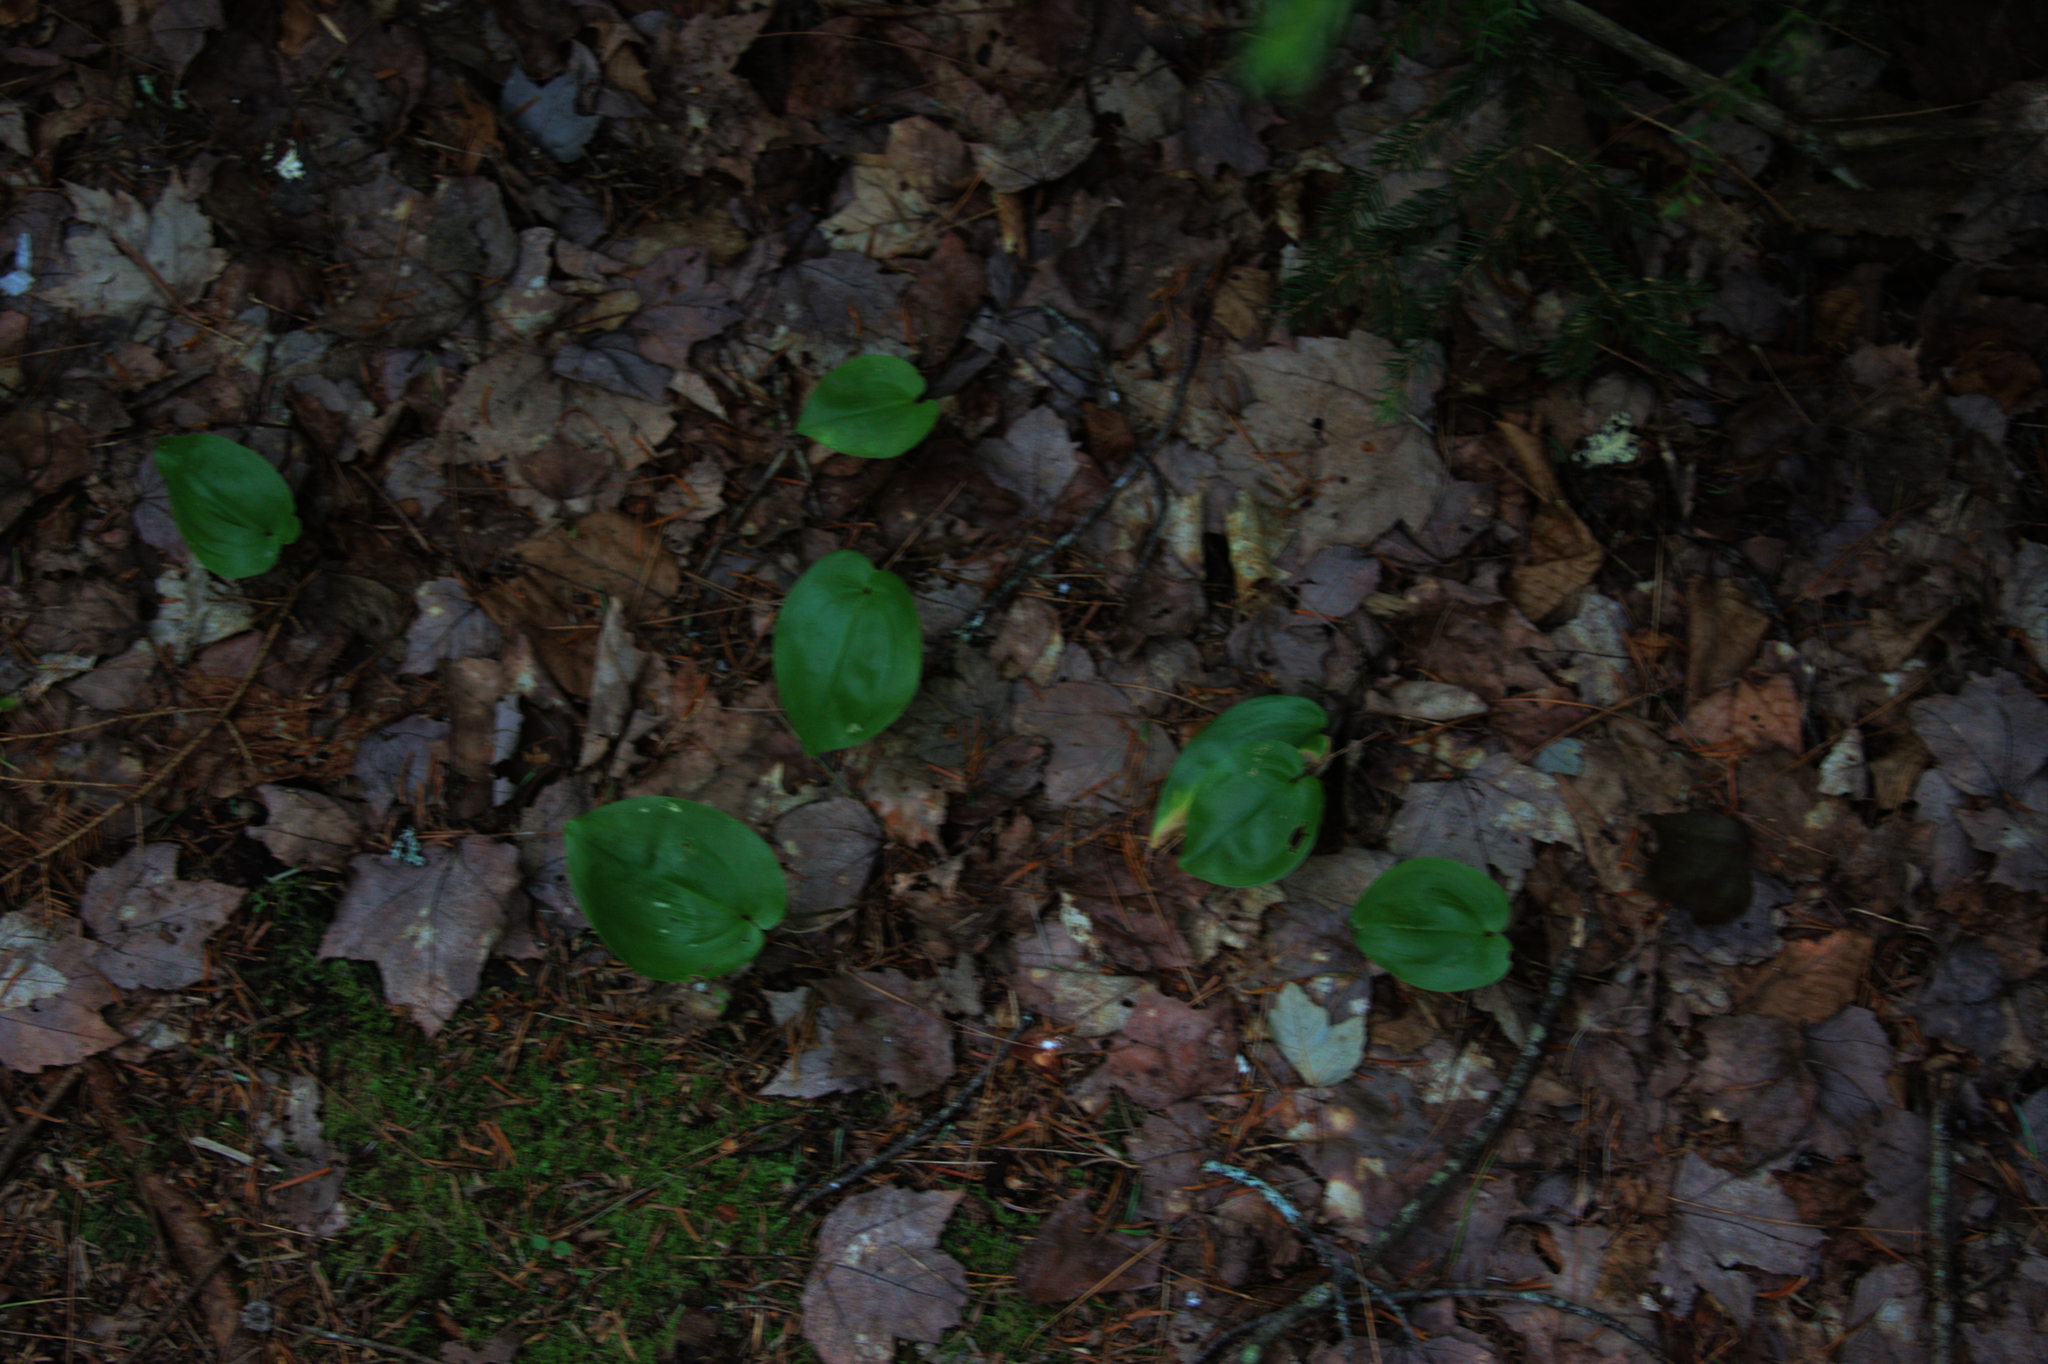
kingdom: Plantae
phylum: Tracheophyta
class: Liliopsida
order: Asparagales
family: Asparagaceae
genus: Maianthemum
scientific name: Maianthemum canadense
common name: False lily-of-the-valley
